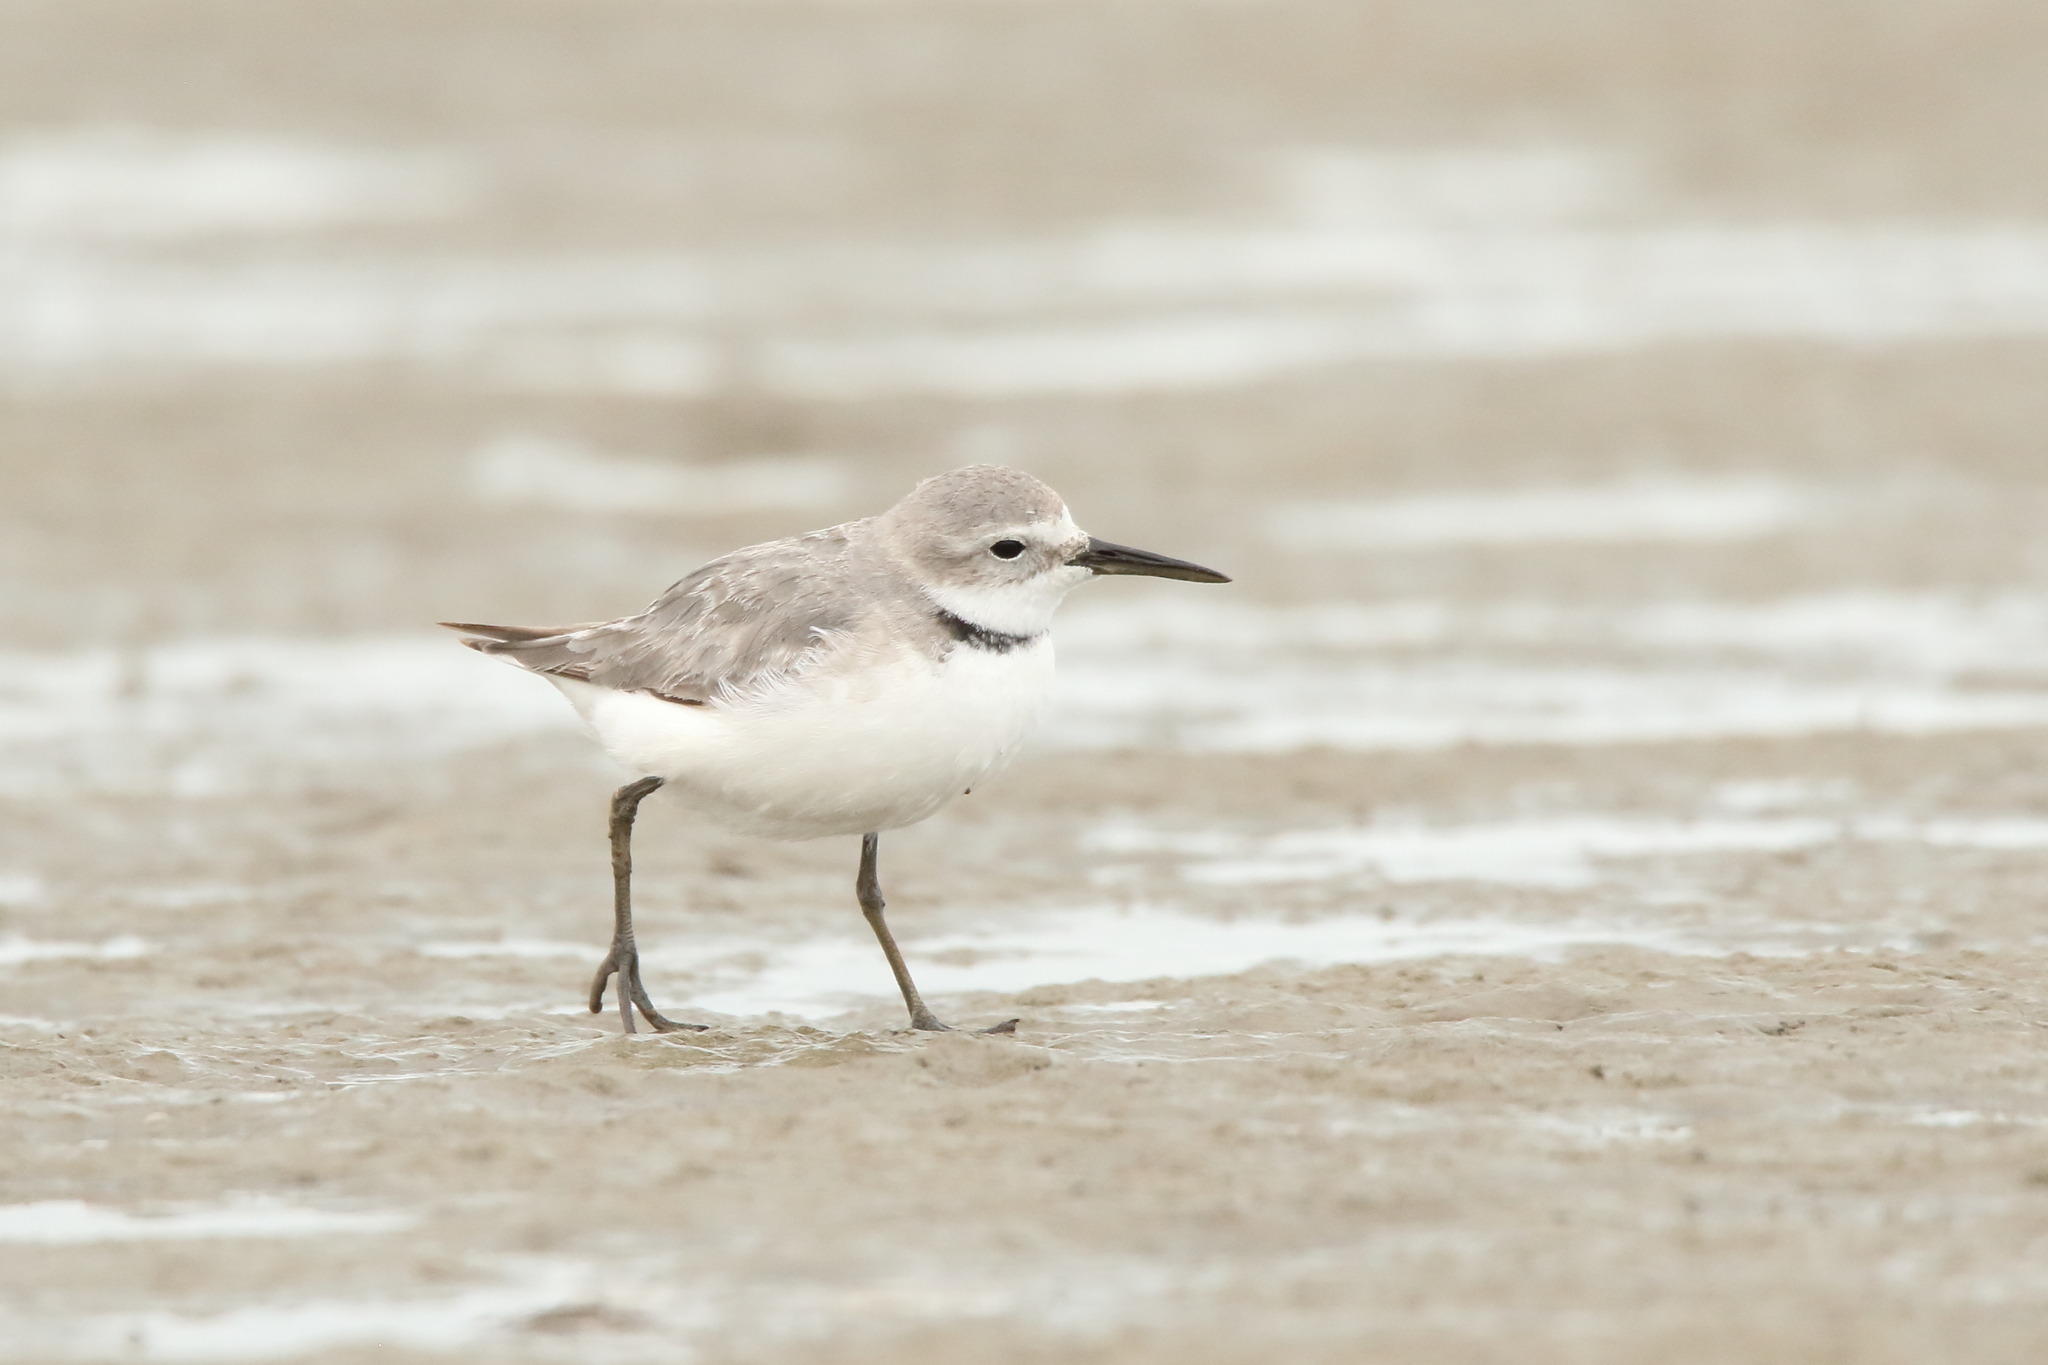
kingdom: Animalia
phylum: Chordata
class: Aves
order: Charadriiformes
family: Charadriidae
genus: Anarhynchus
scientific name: Anarhynchus frontalis
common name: Wrybill
